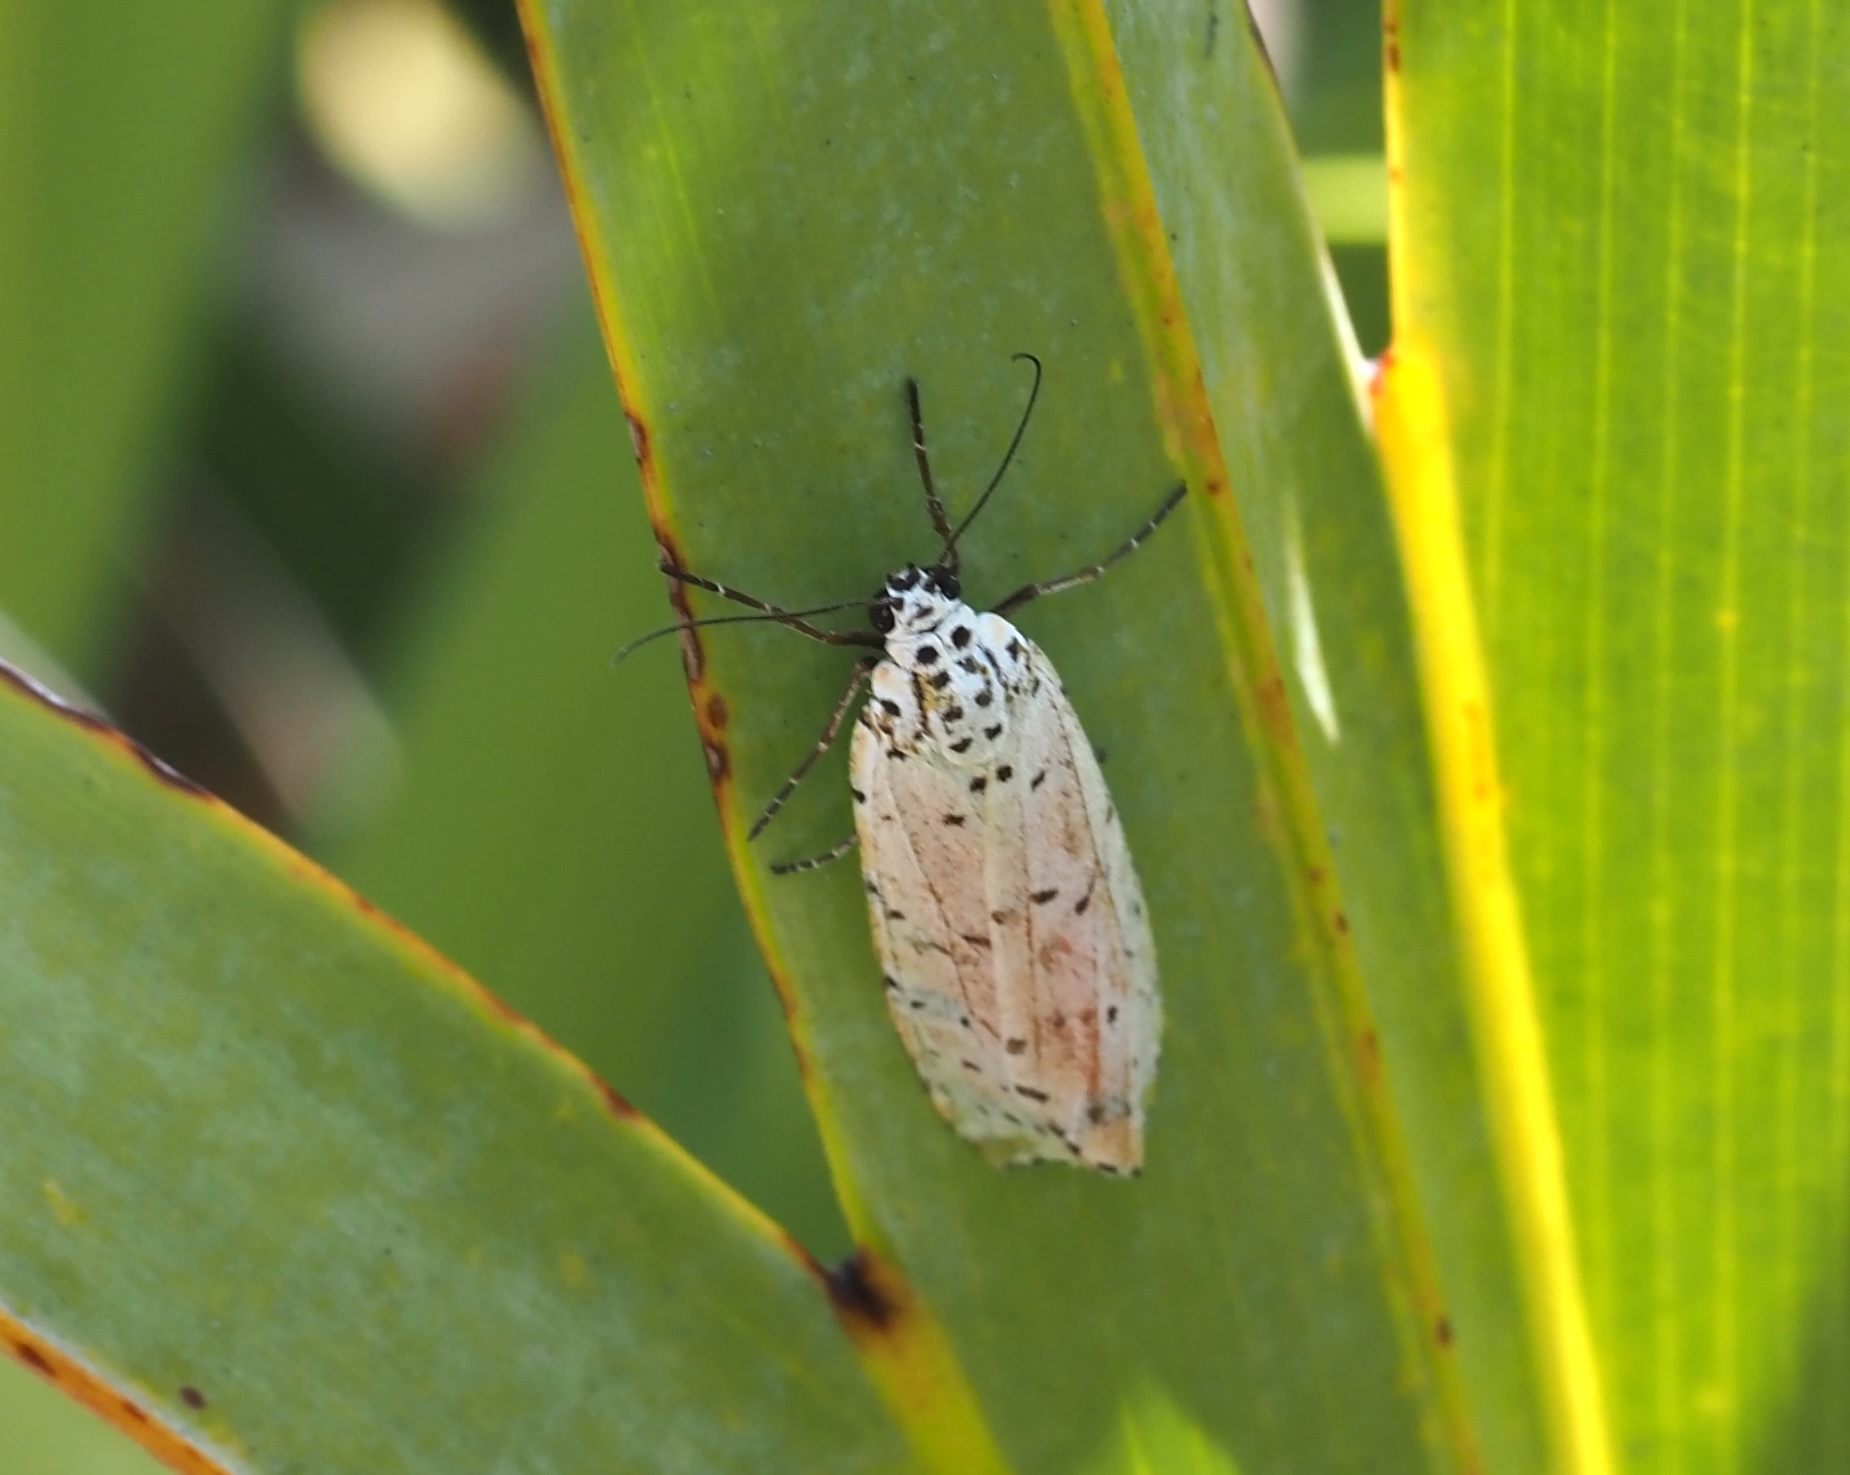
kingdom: Animalia
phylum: Arthropoda
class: Insecta
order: Lepidoptera
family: Erebidae
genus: Utetheisa
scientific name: Utetheisa ornatrix
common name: Beautiful utetheisa
